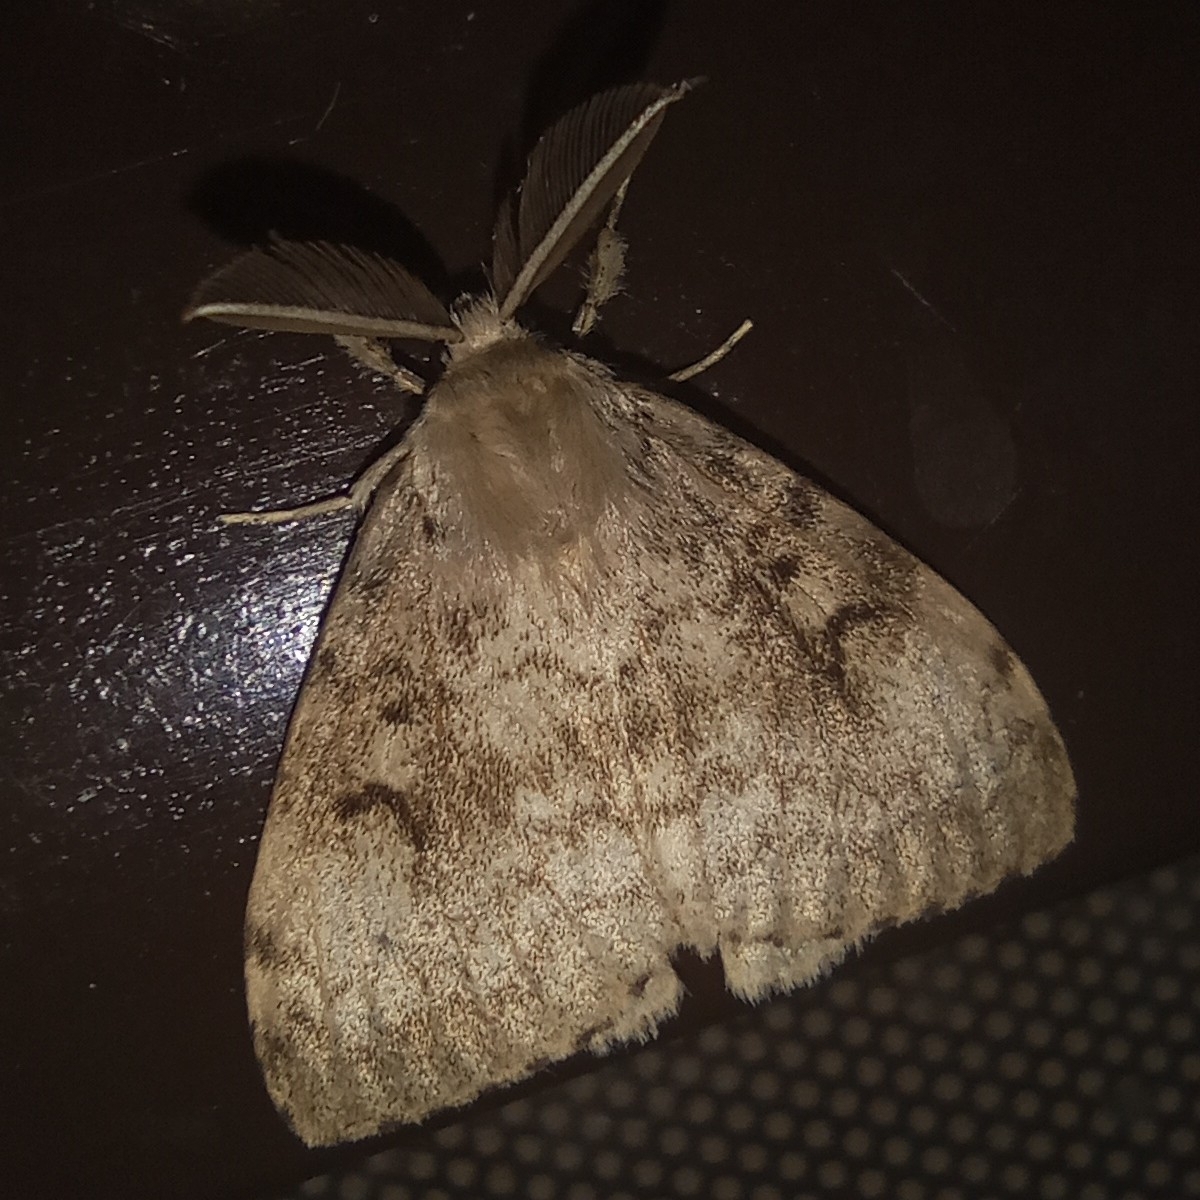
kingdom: Animalia
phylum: Arthropoda
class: Insecta
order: Lepidoptera
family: Erebidae
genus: Lymantria
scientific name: Lymantria dispar
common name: Gypsy moth
